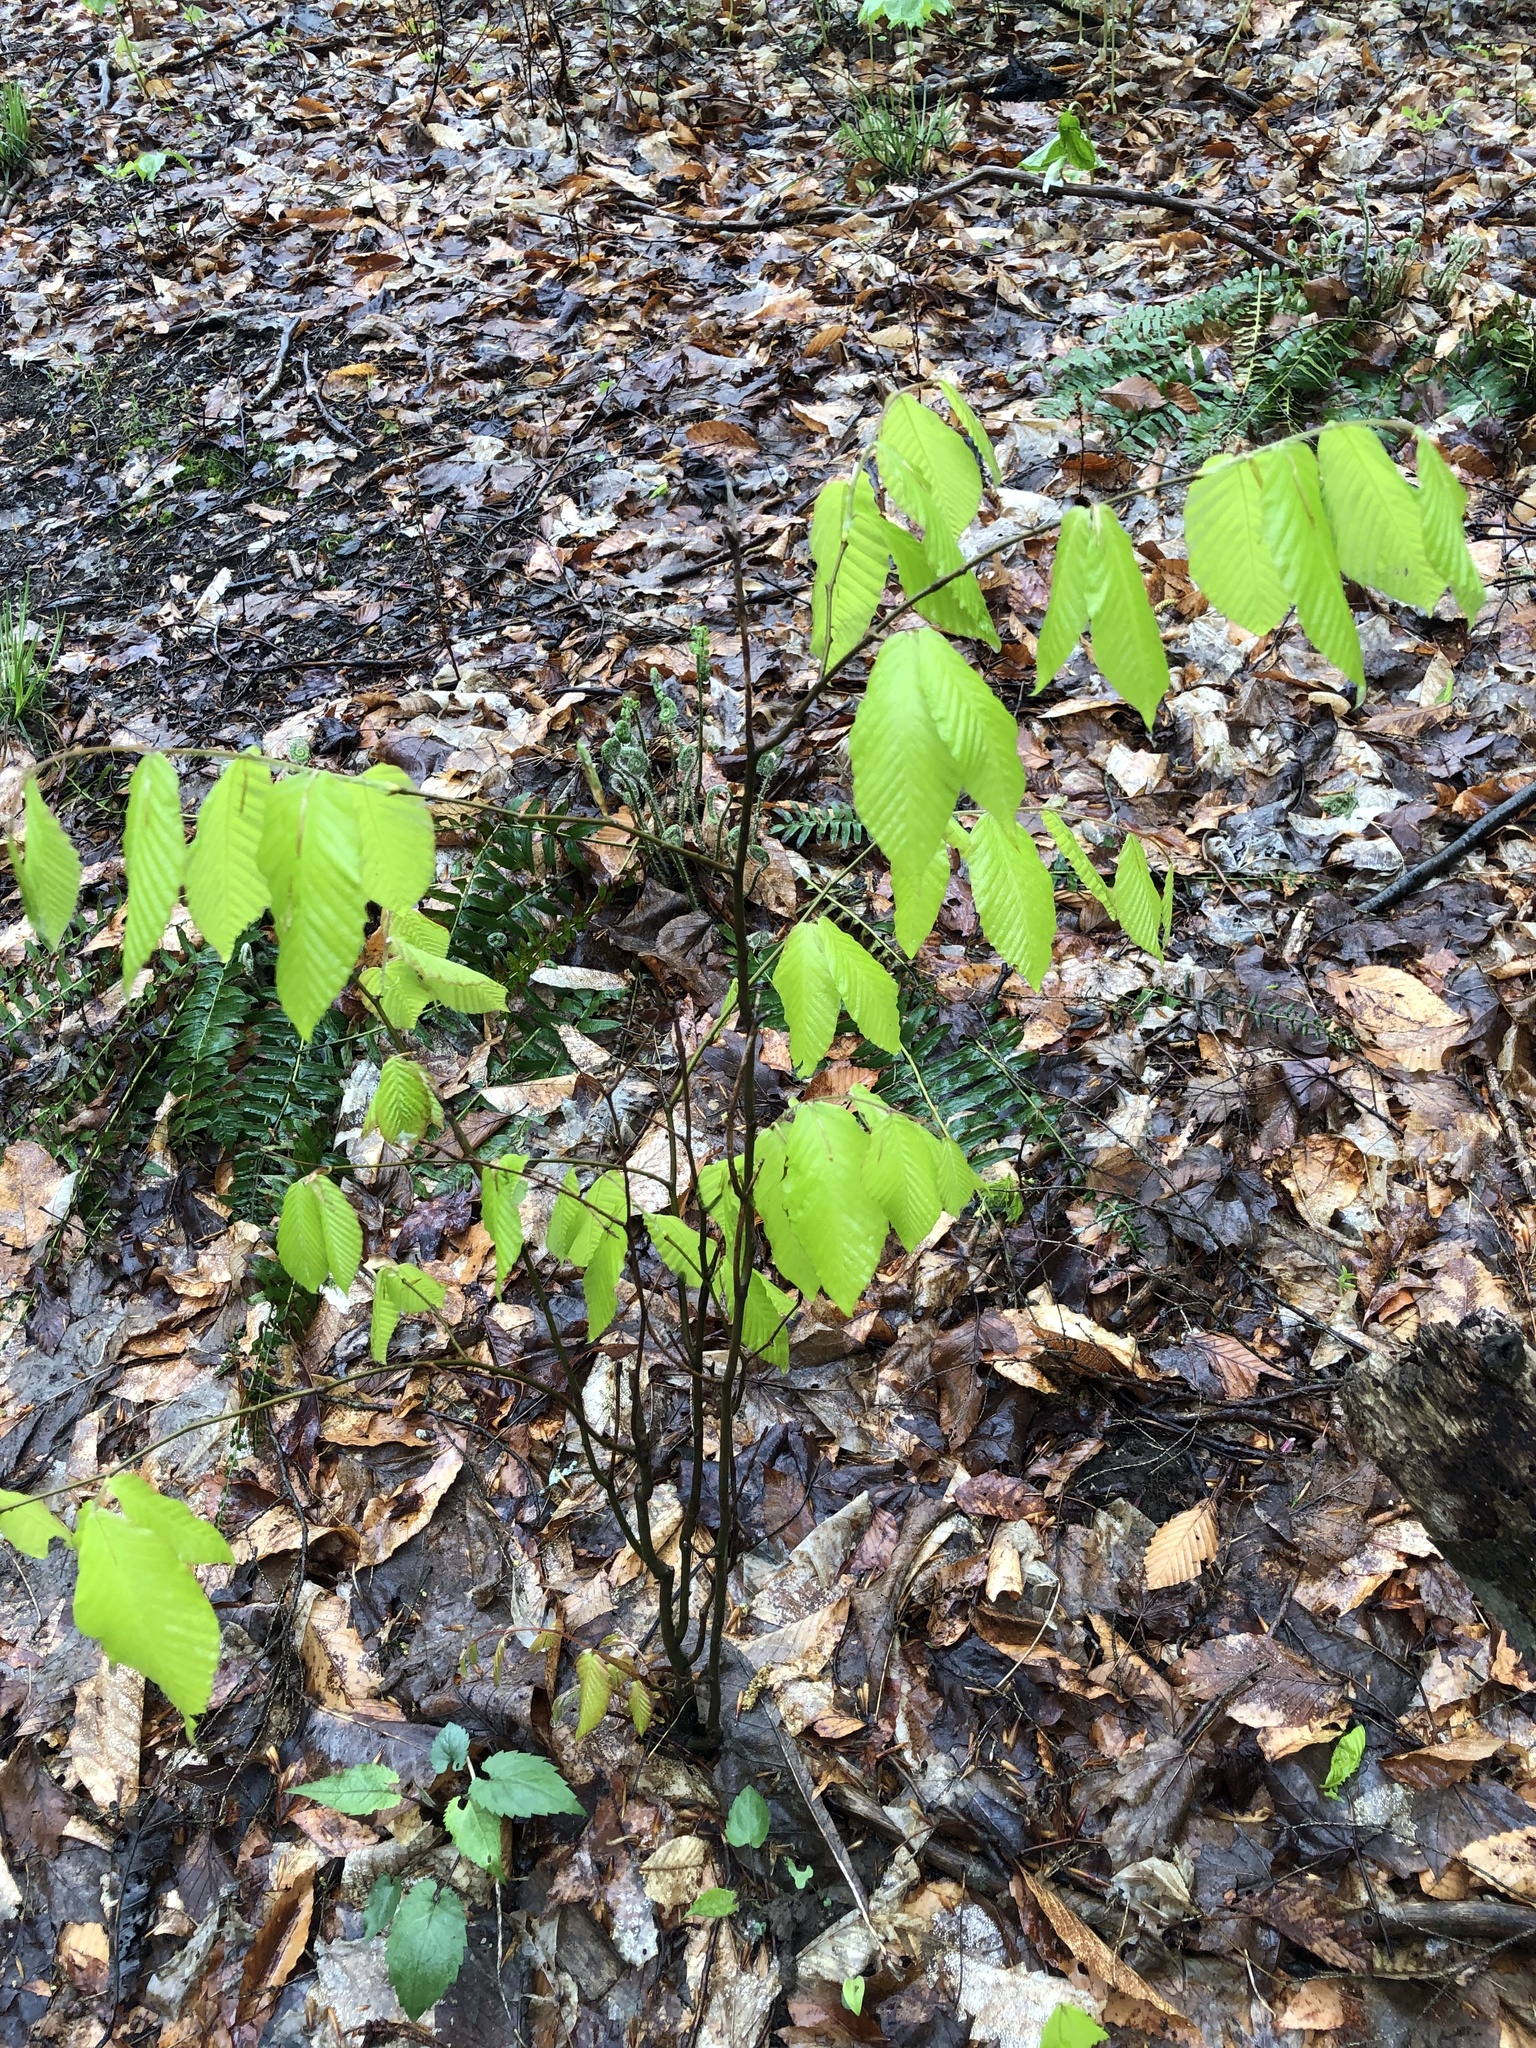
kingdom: Plantae
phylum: Tracheophyta
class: Magnoliopsida
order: Fagales
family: Fagaceae
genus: Fagus
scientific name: Fagus grandifolia
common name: American beech
